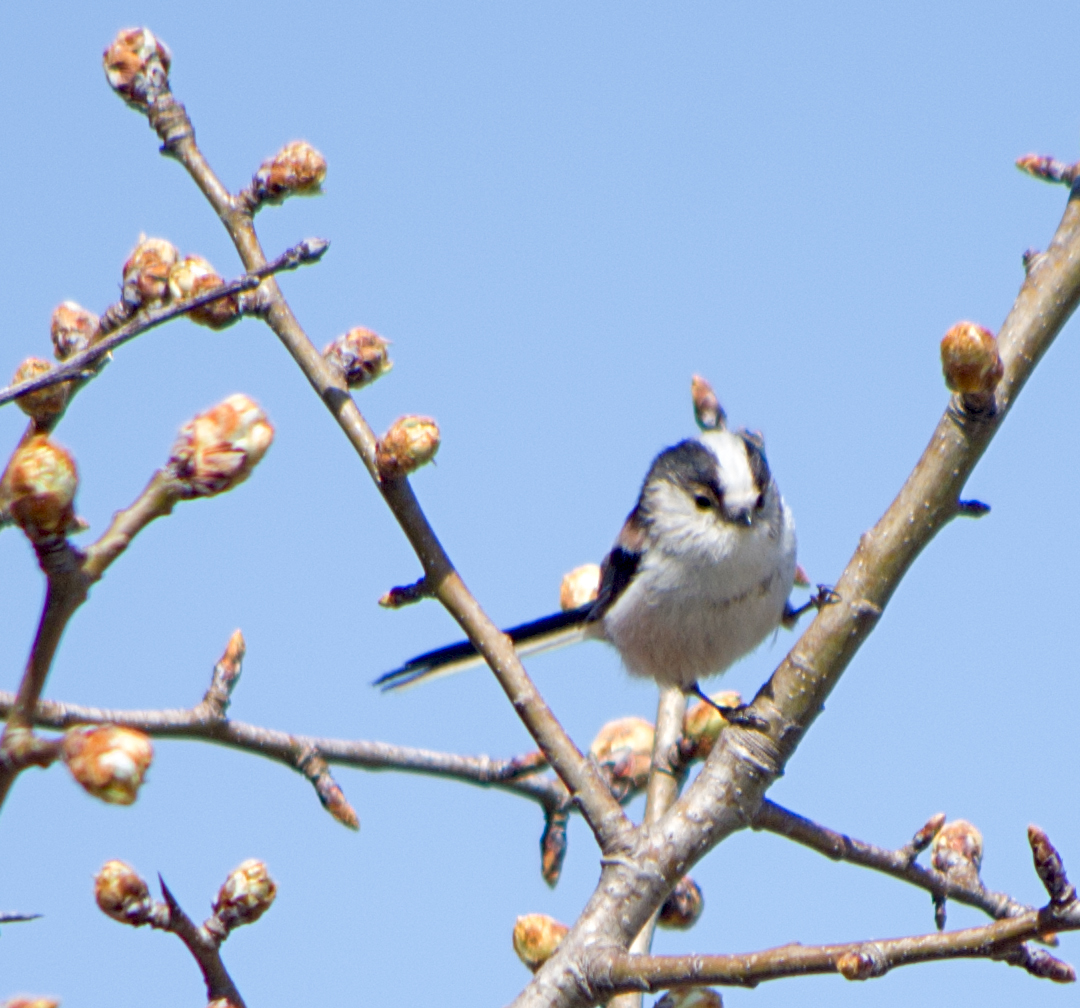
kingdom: Animalia
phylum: Chordata
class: Aves
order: Passeriformes
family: Aegithalidae
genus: Aegithalos
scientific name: Aegithalos caudatus
